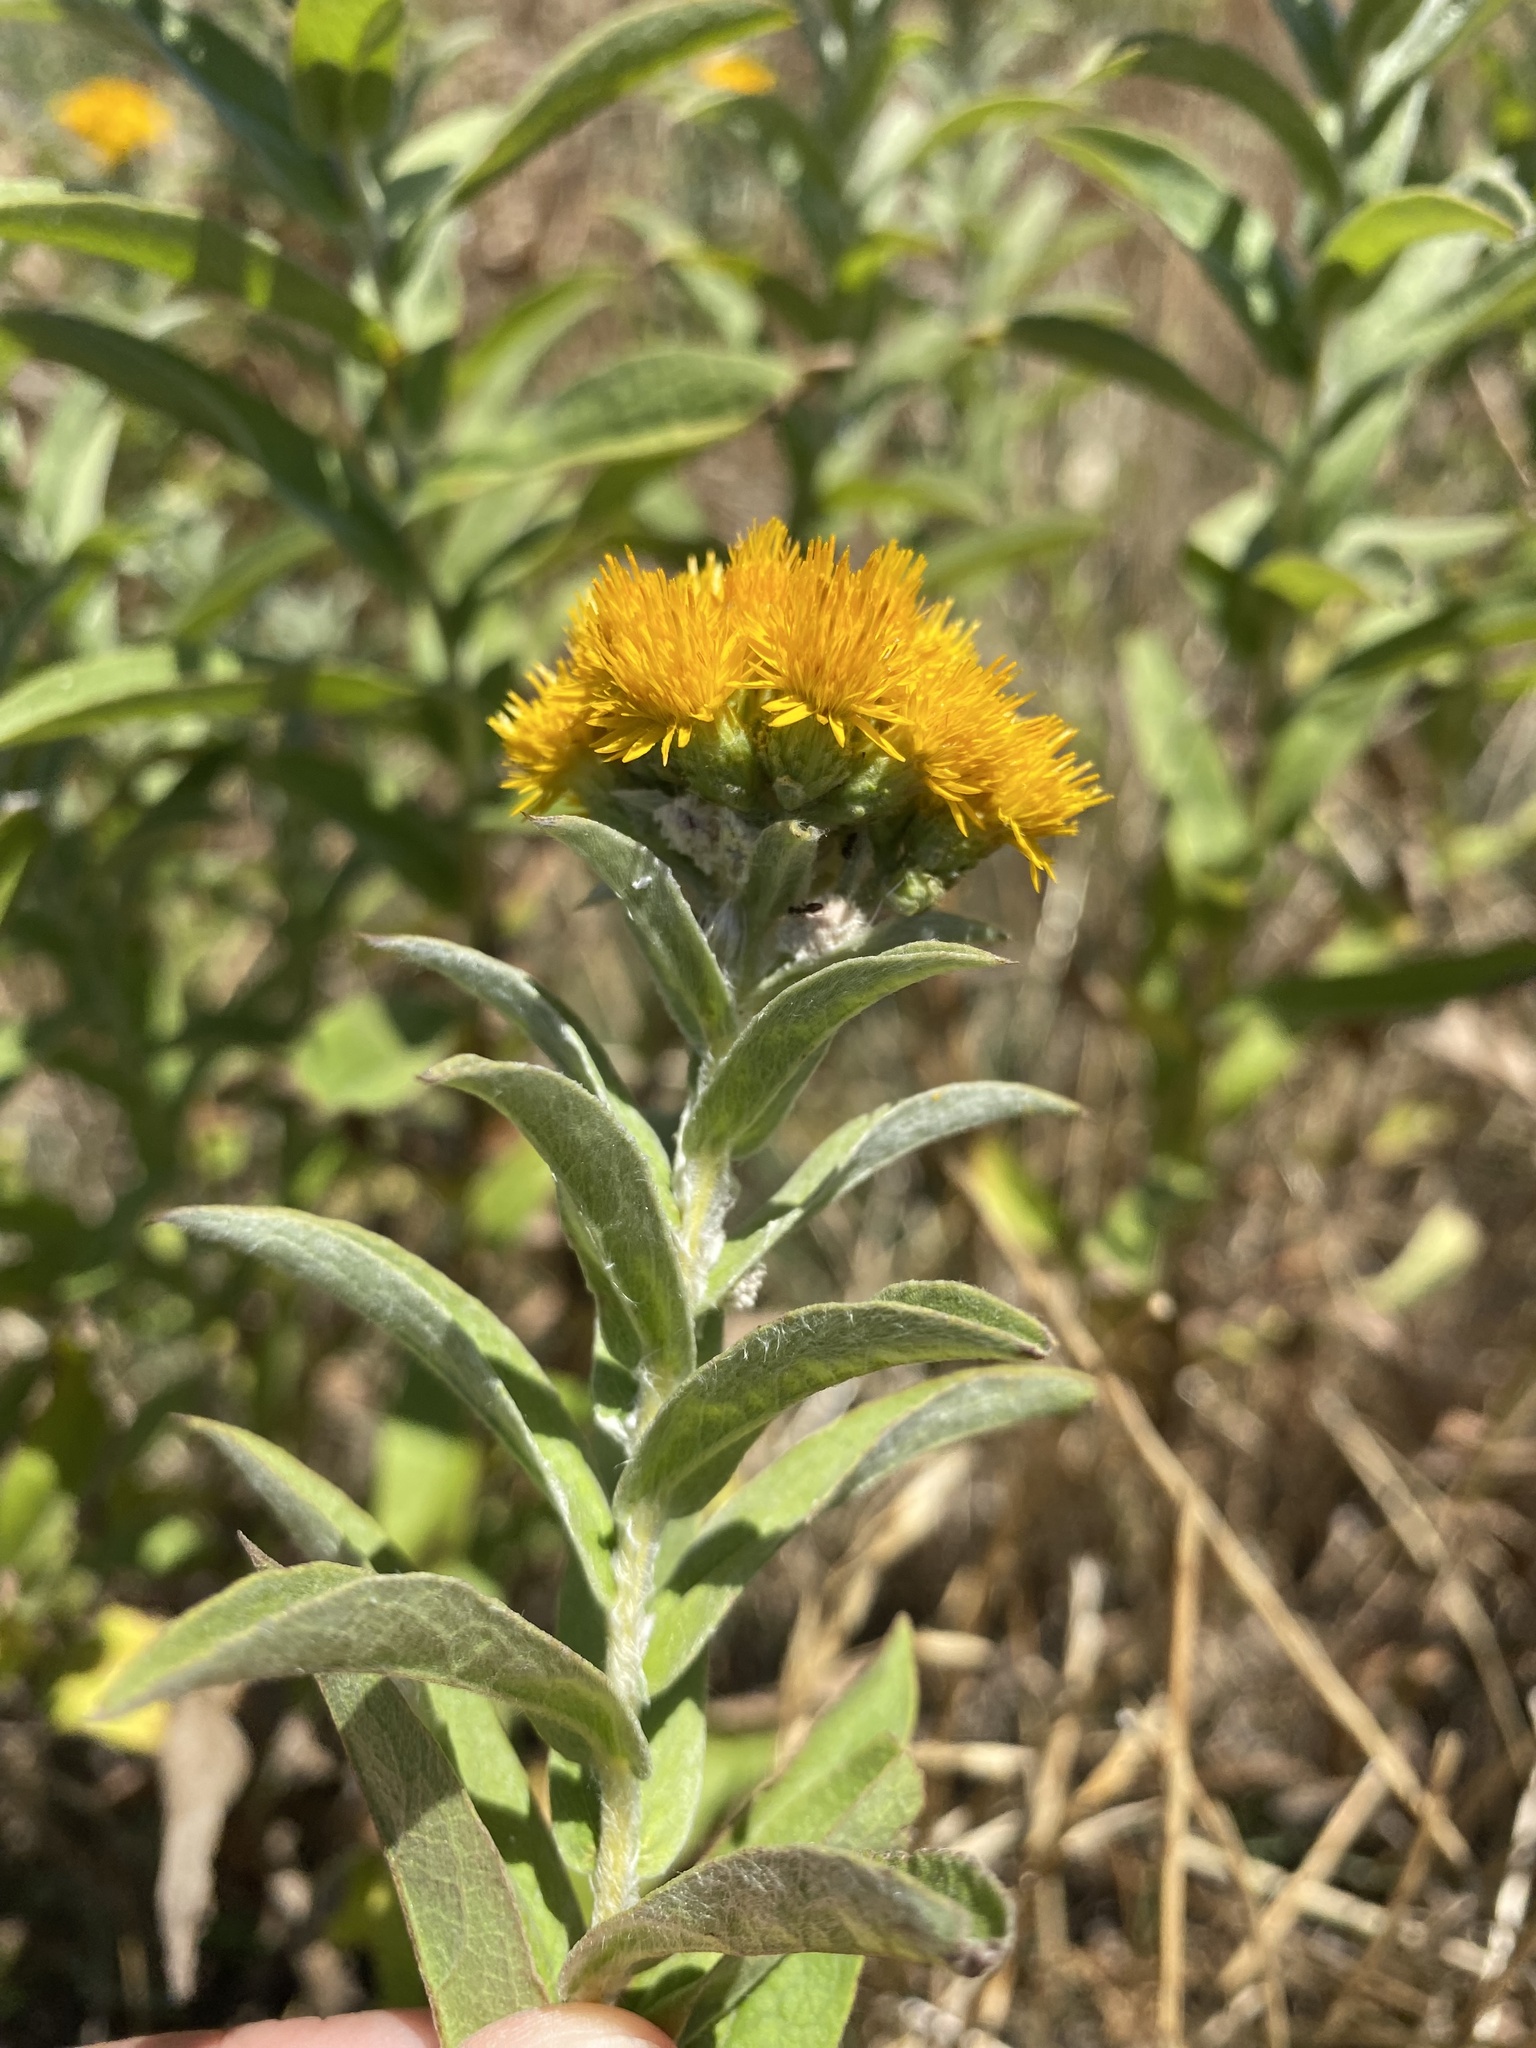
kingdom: Plantae
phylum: Tracheophyta
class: Magnoliopsida
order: Asterales
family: Asteraceae
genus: Pentanema
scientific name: Pentanema germanicum
